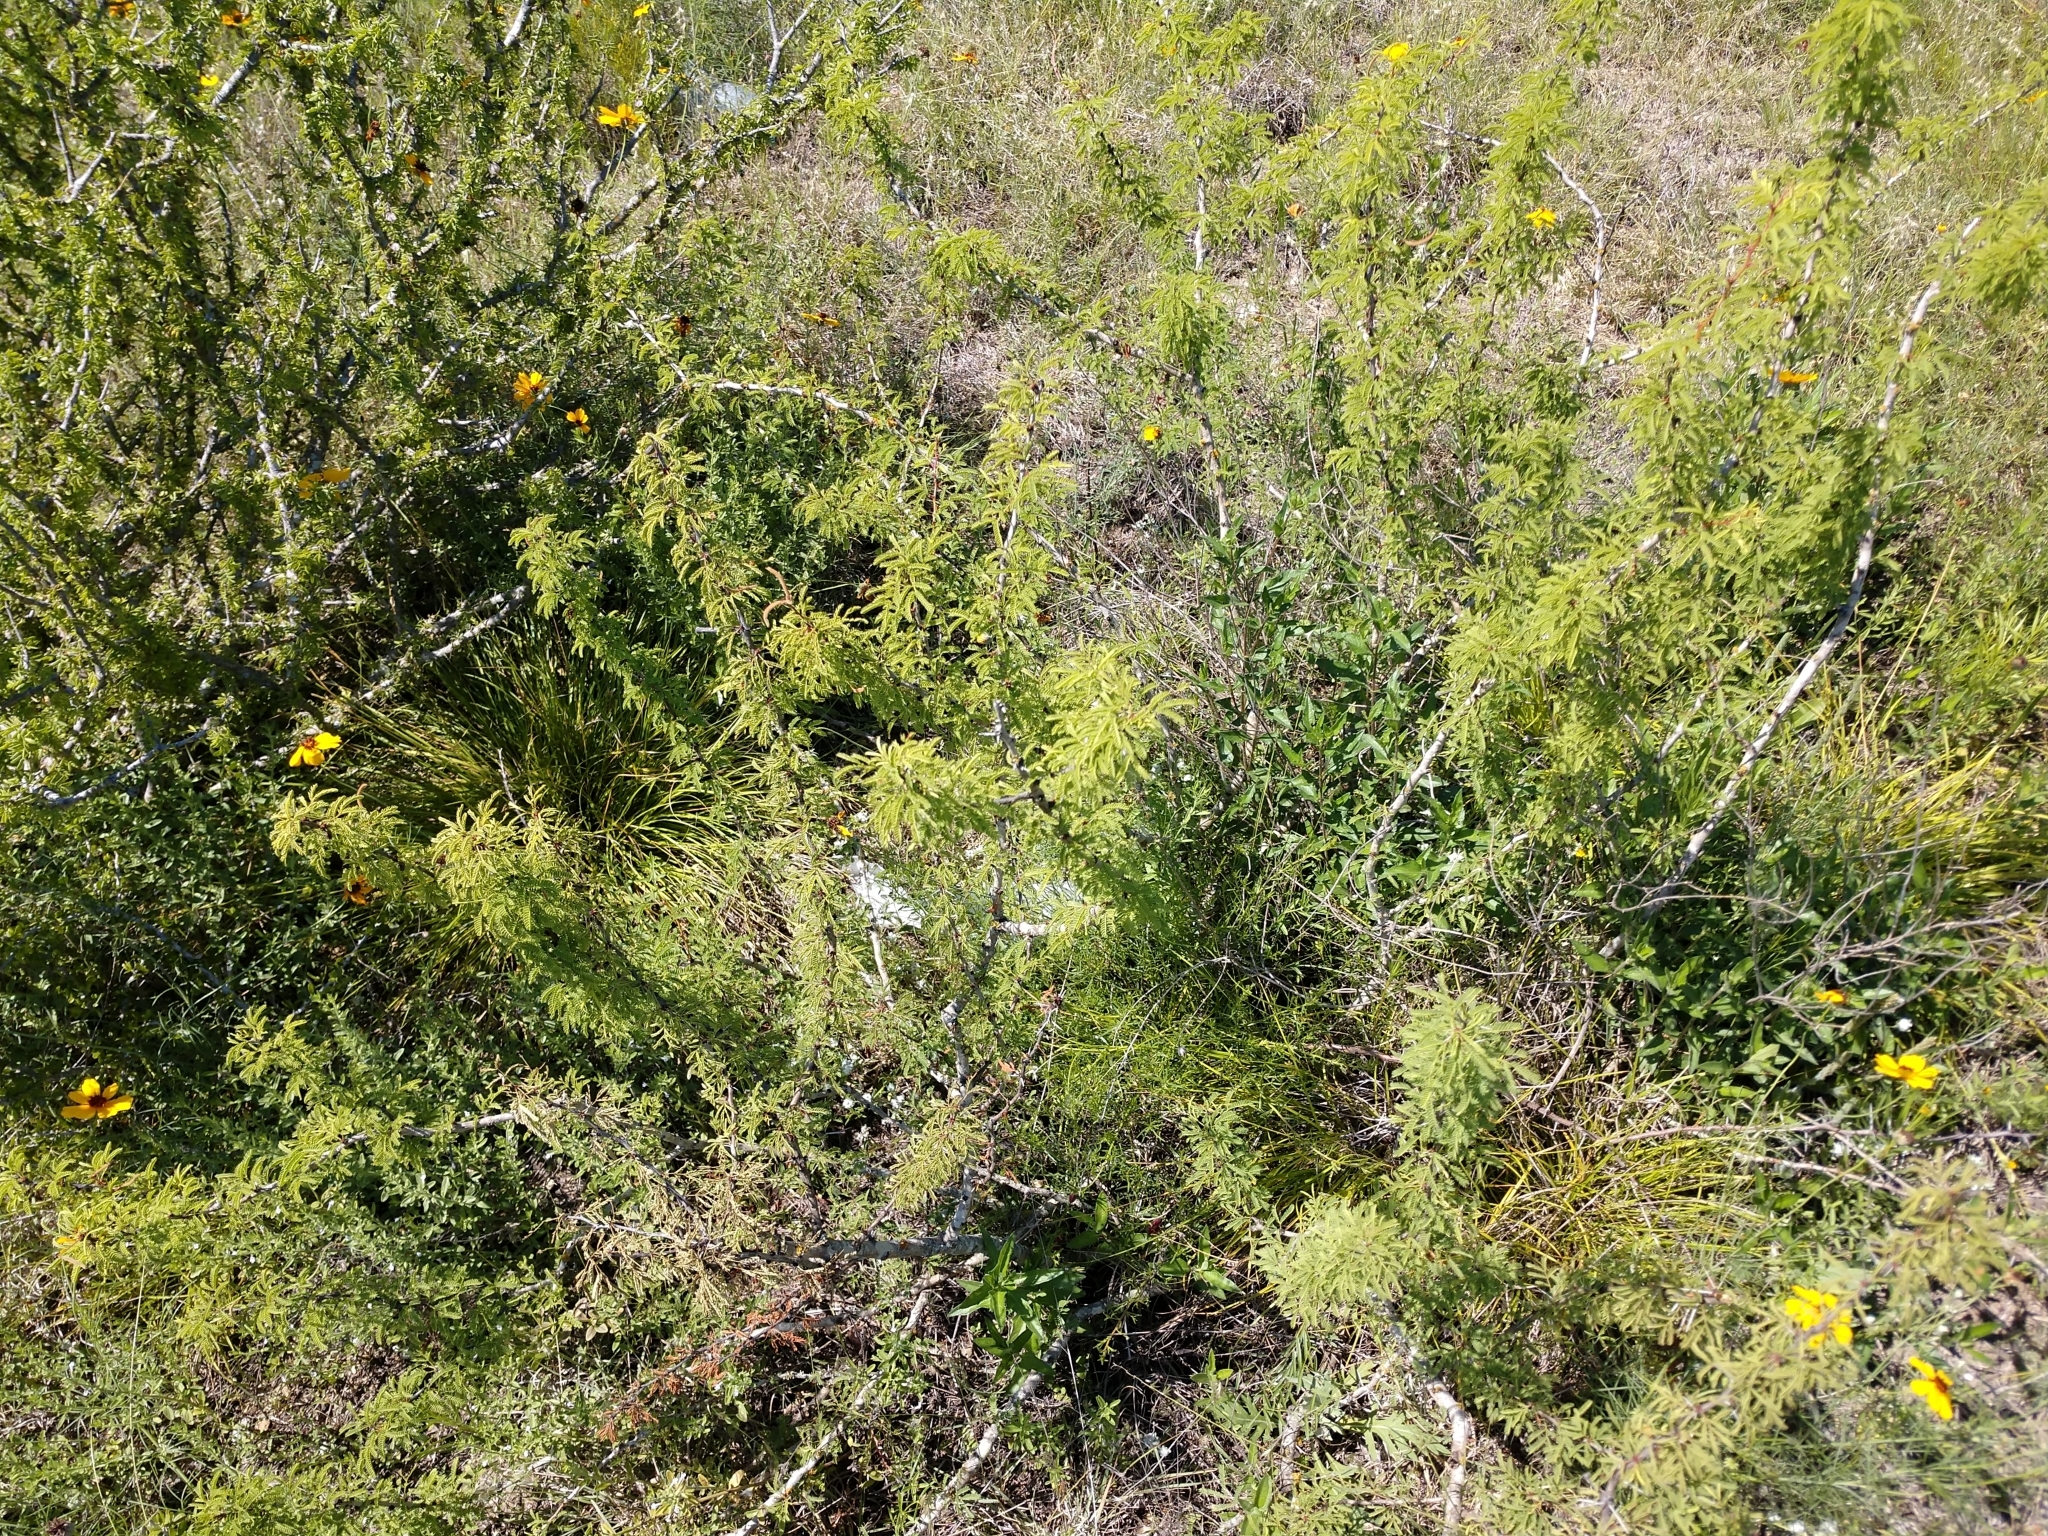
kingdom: Plantae
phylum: Tracheophyta
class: Magnoliopsida
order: Fabales
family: Fabaceae
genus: Vachellia
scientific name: Vachellia schaffneri
